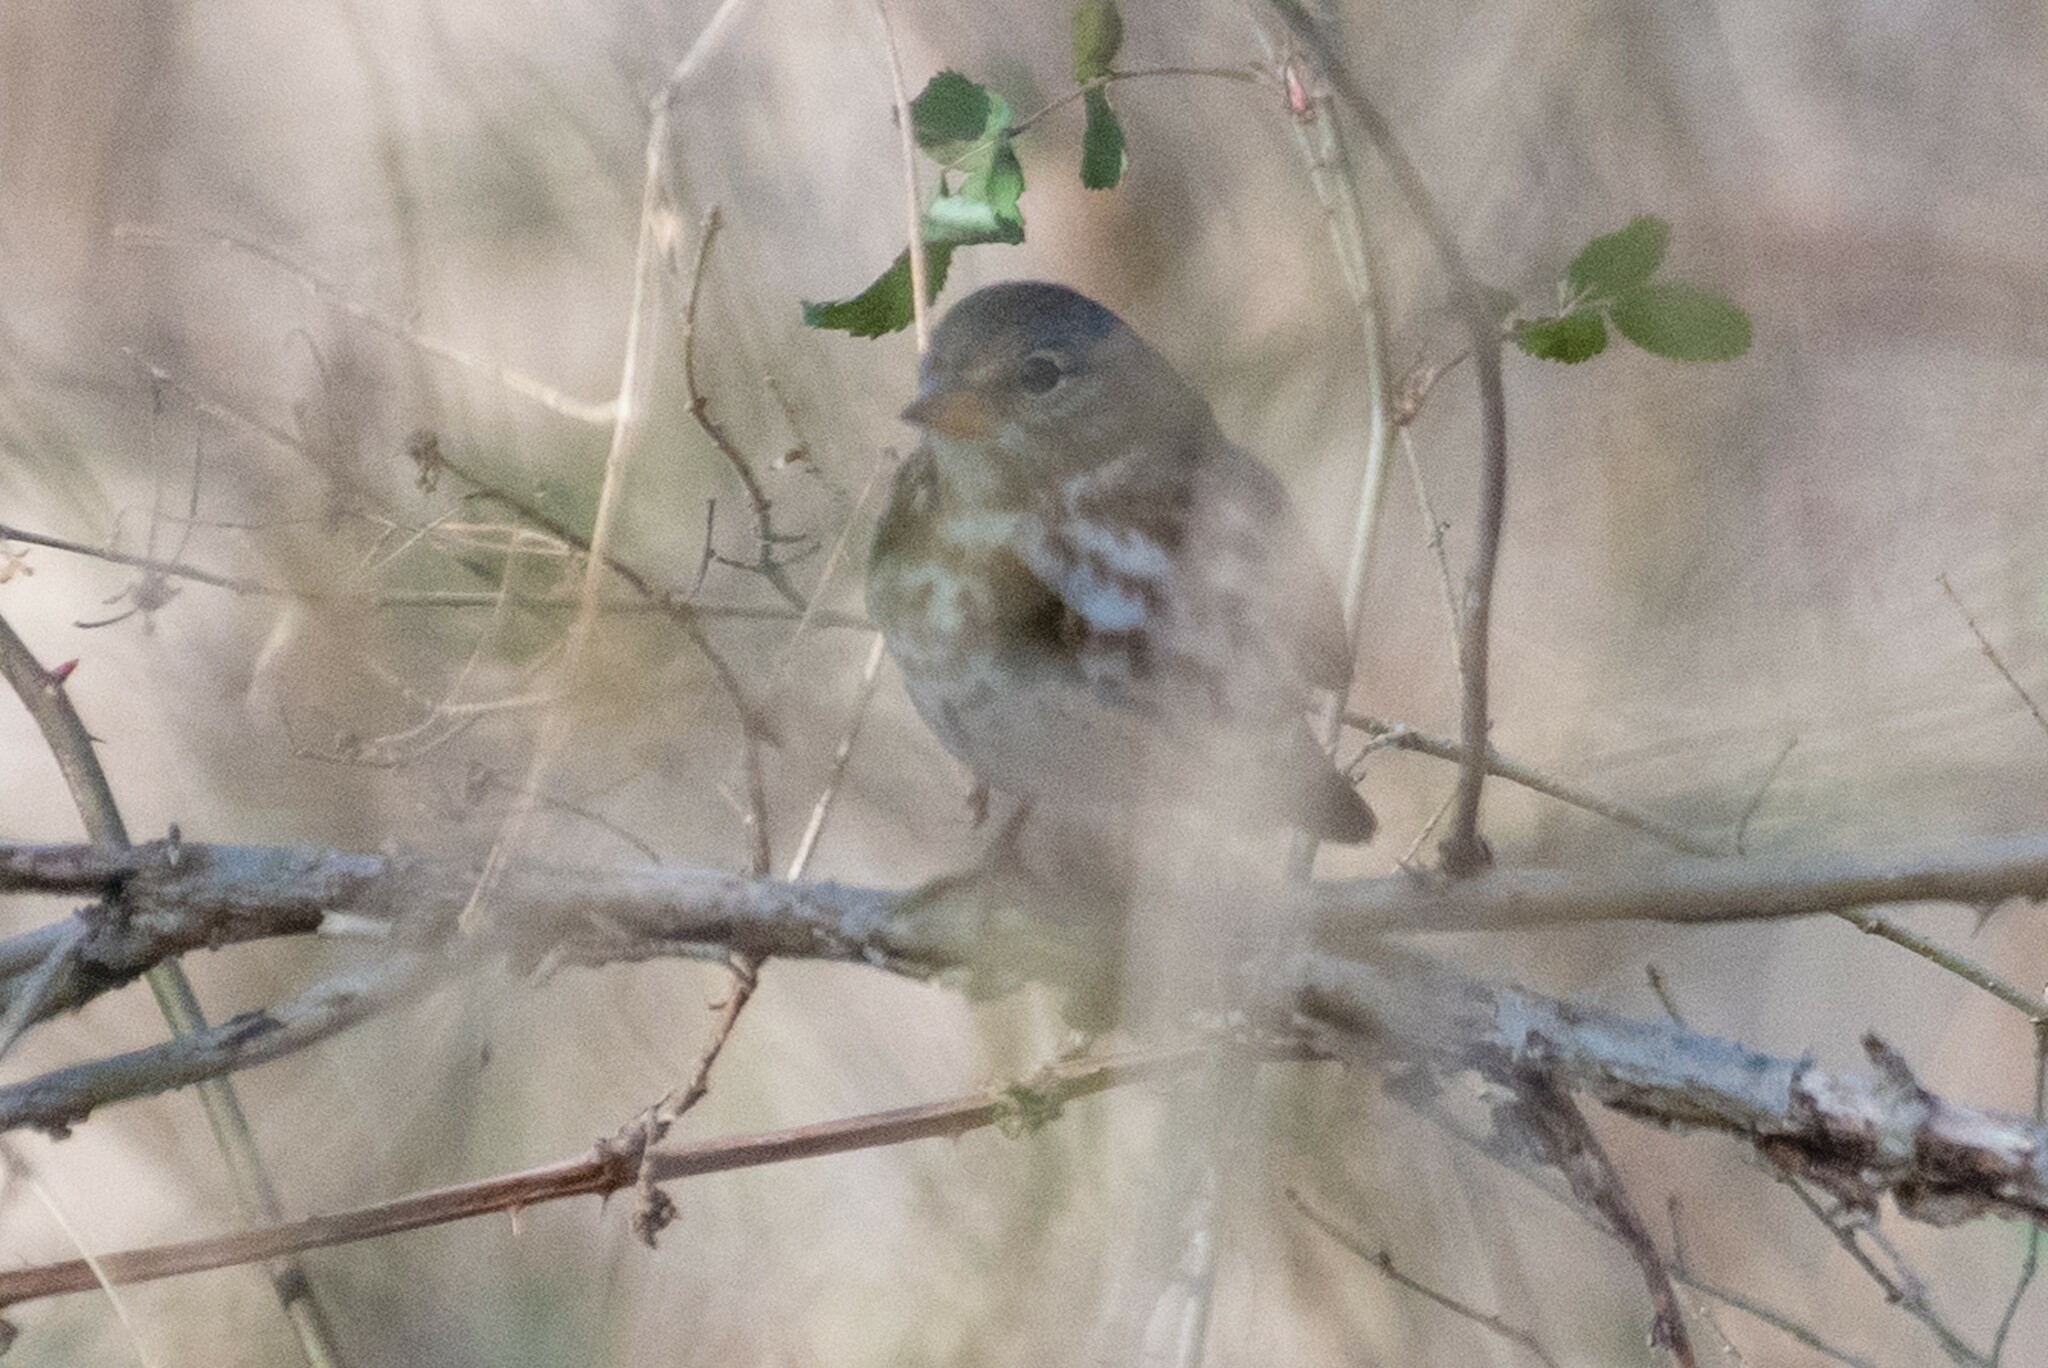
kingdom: Animalia
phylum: Chordata
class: Aves
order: Passeriformes
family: Passerellidae
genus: Passerella
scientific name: Passerella iliaca
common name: Fox sparrow
